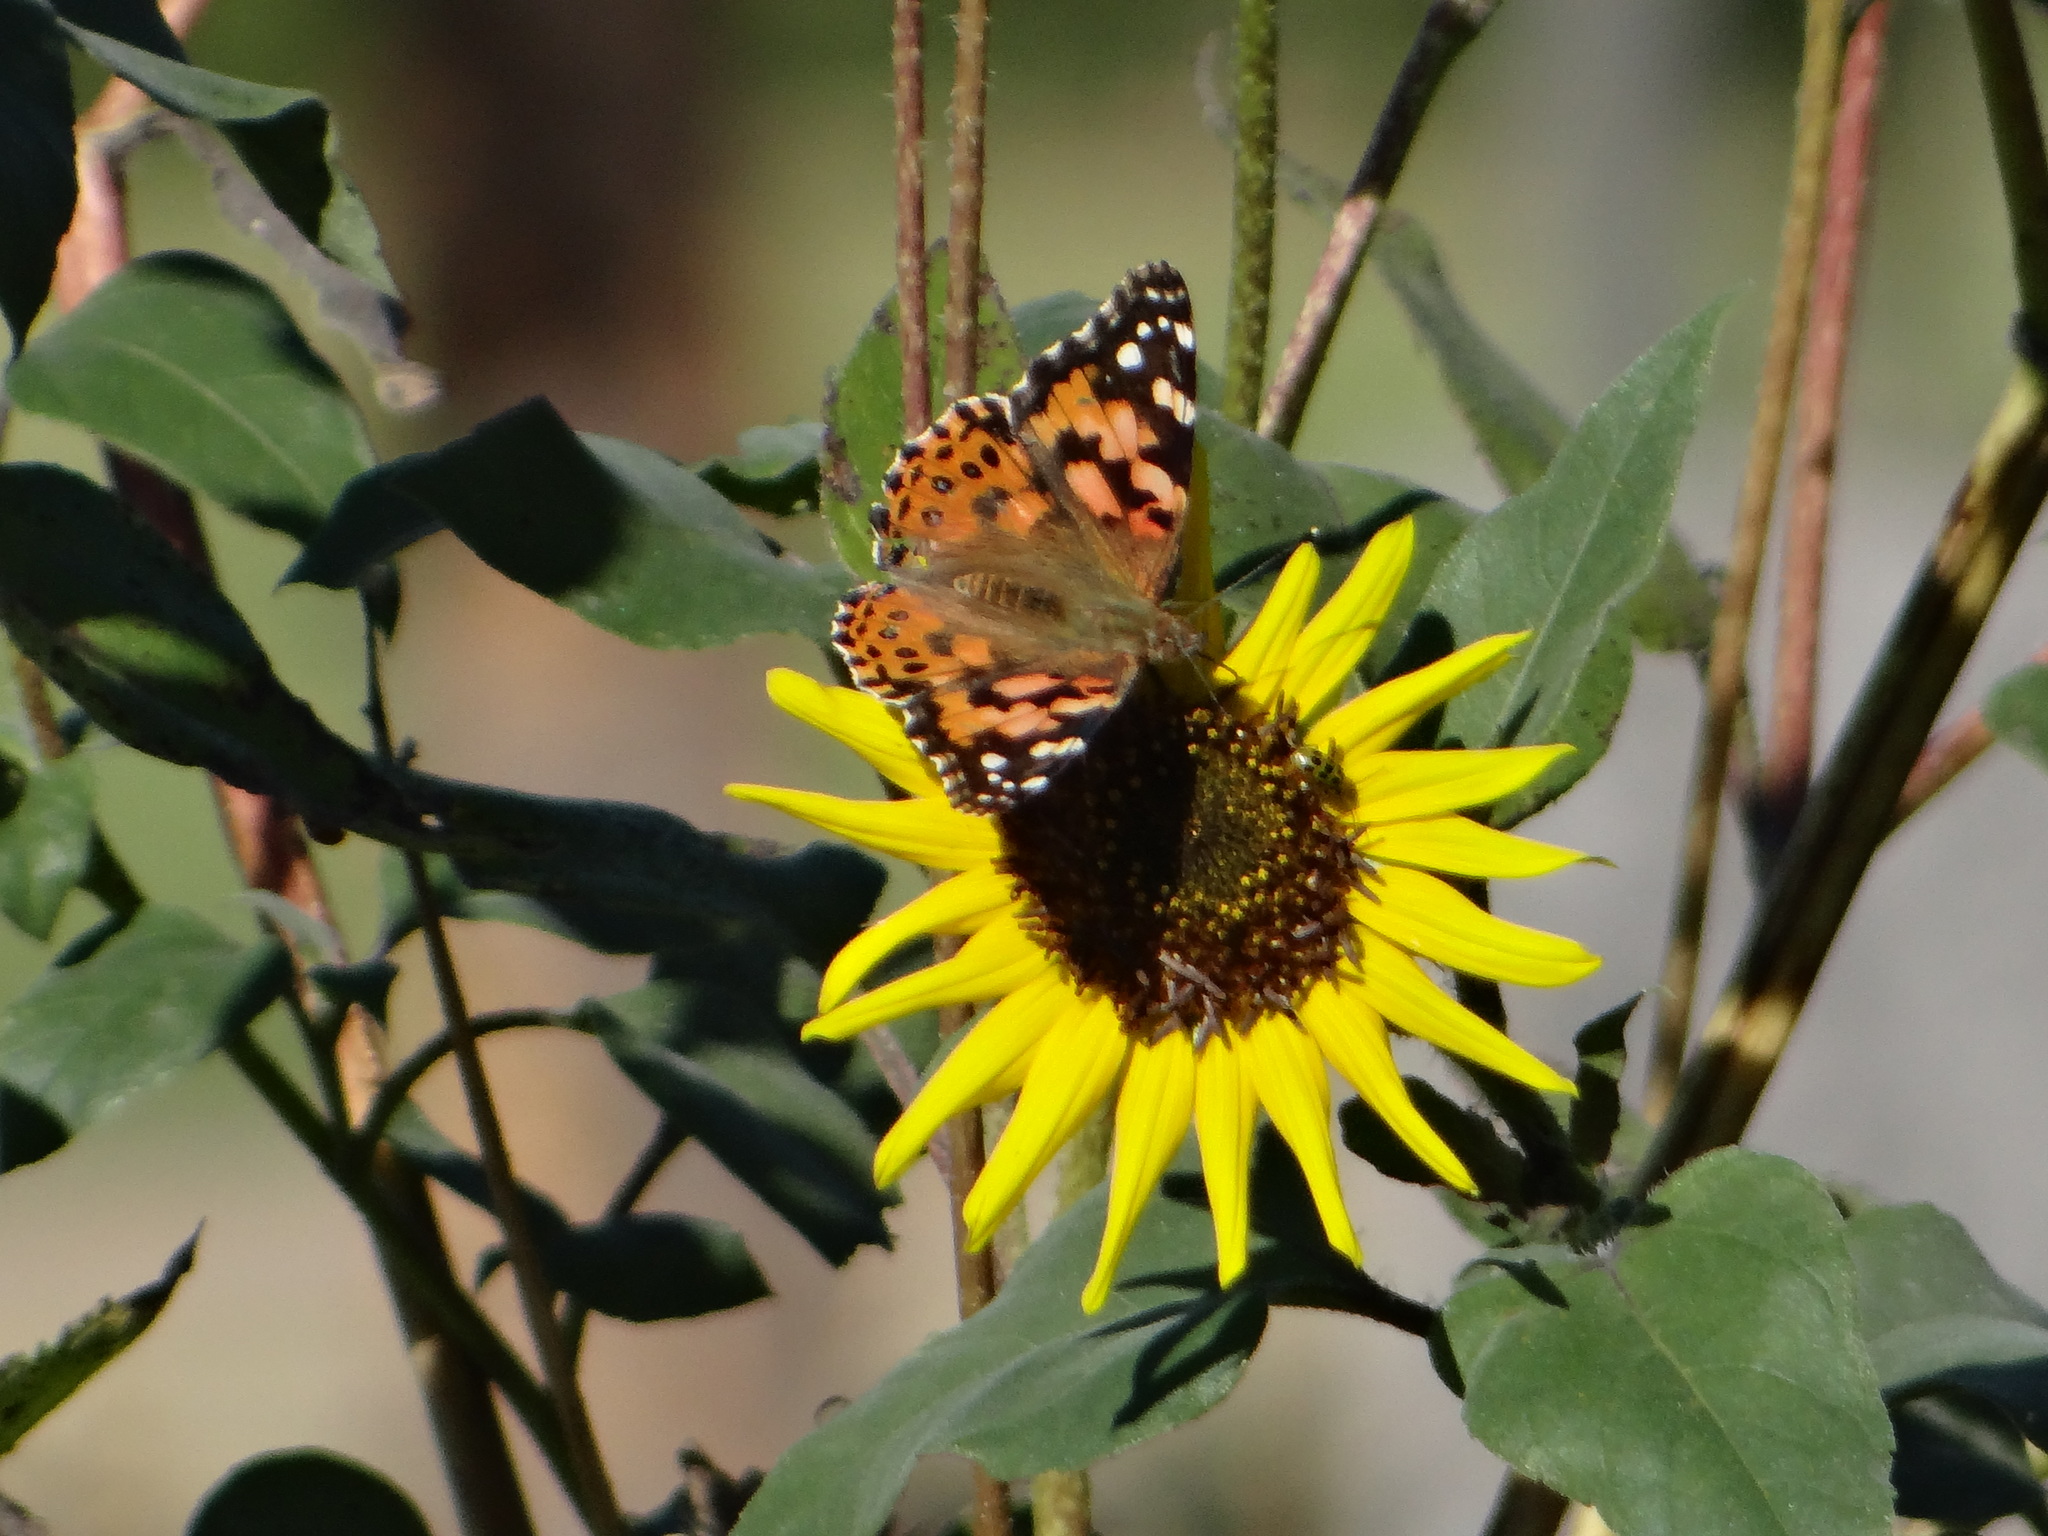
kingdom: Animalia
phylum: Arthropoda
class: Insecta
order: Lepidoptera
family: Nymphalidae
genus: Vanessa
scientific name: Vanessa cardui
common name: Painted lady
